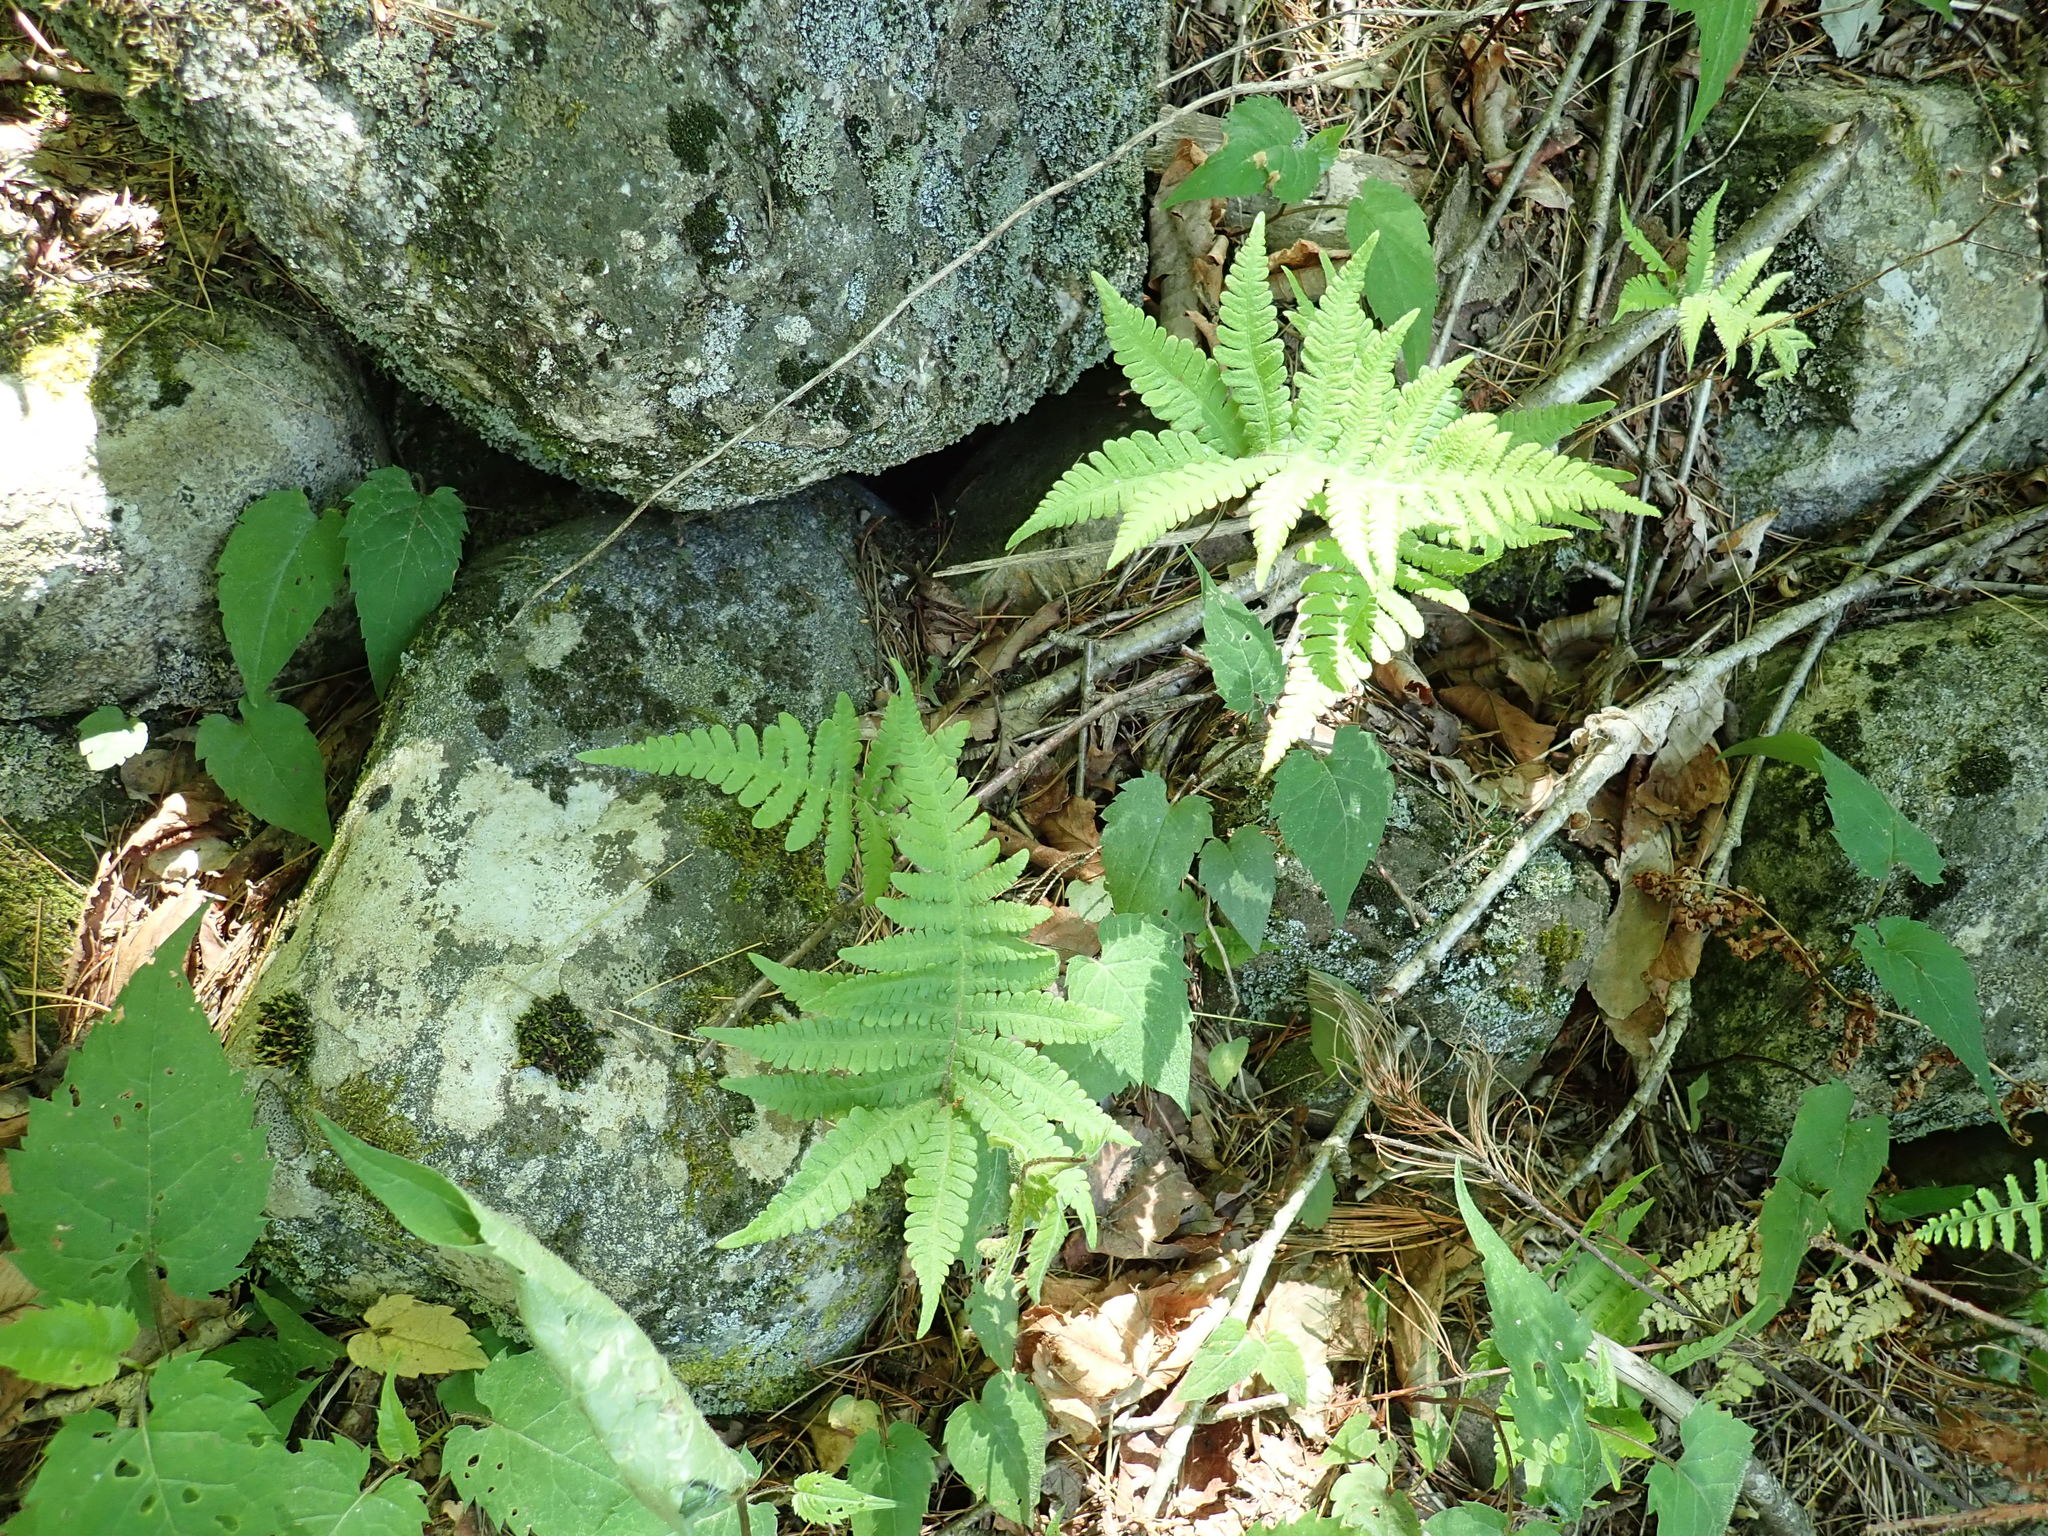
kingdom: Plantae
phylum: Tracheophyta
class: Polypodiopsida
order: Polypodiales
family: Thelypteridaceae
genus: Phegopteris
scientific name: Phegopteris connectilis
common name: Beech fern
